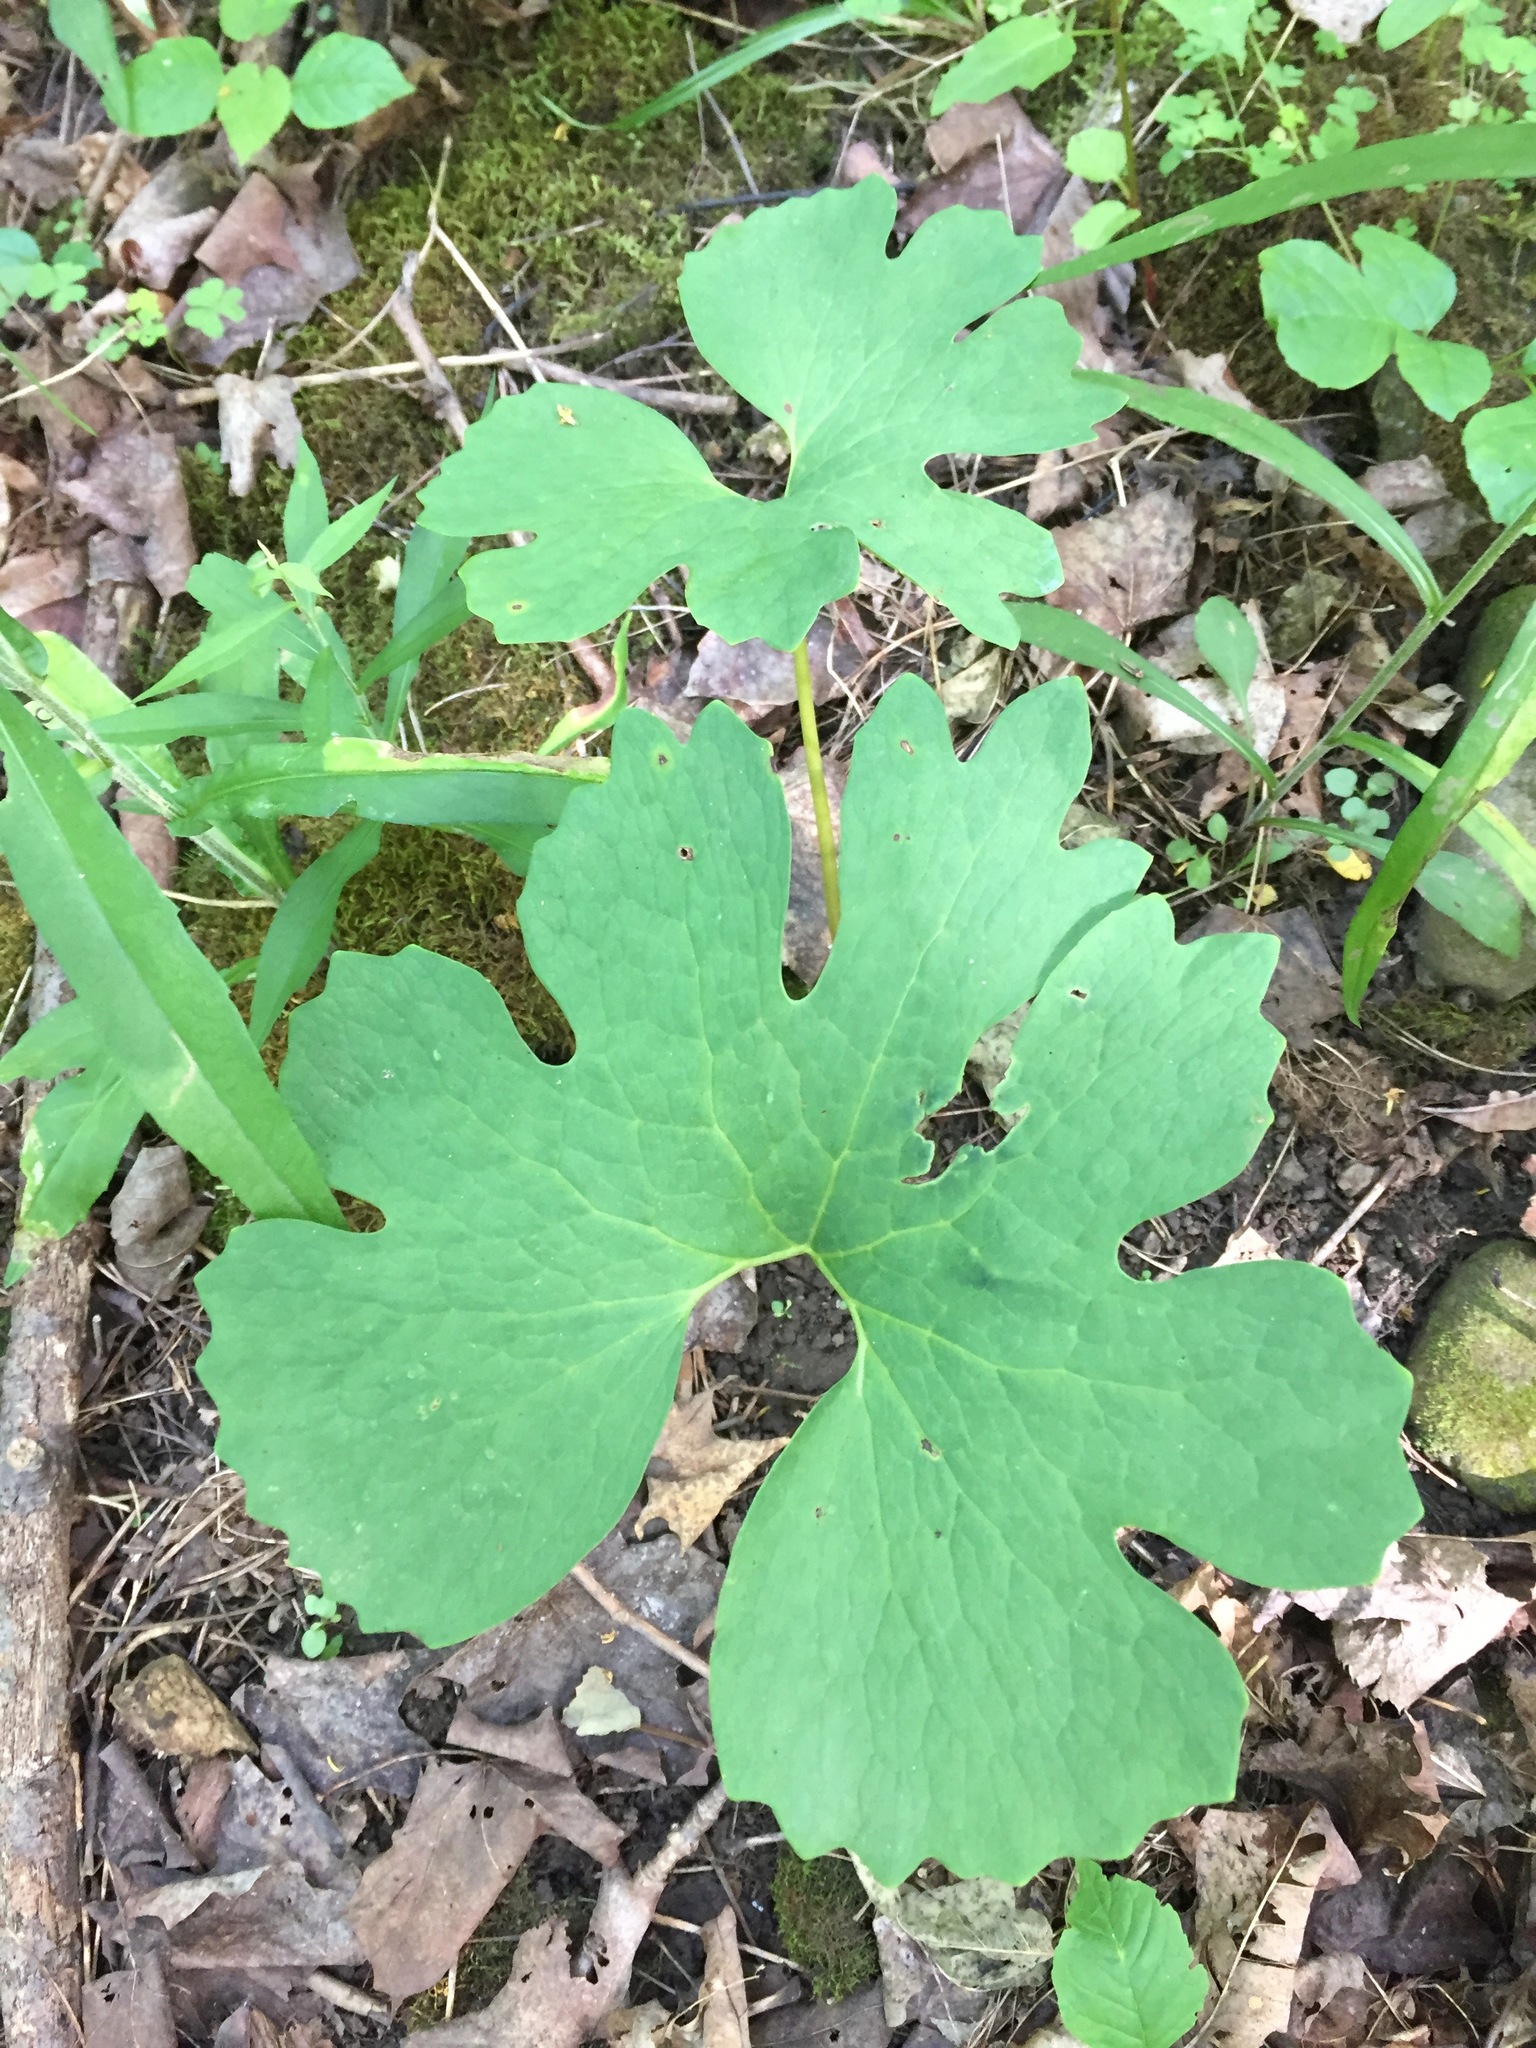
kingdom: Plantae
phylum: Tracheophyta
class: Magnoliopsida
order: Ranunculales
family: Papaveraceae
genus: Sanguinaria
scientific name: Sanguinaria canadensis
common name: Bloodroot
